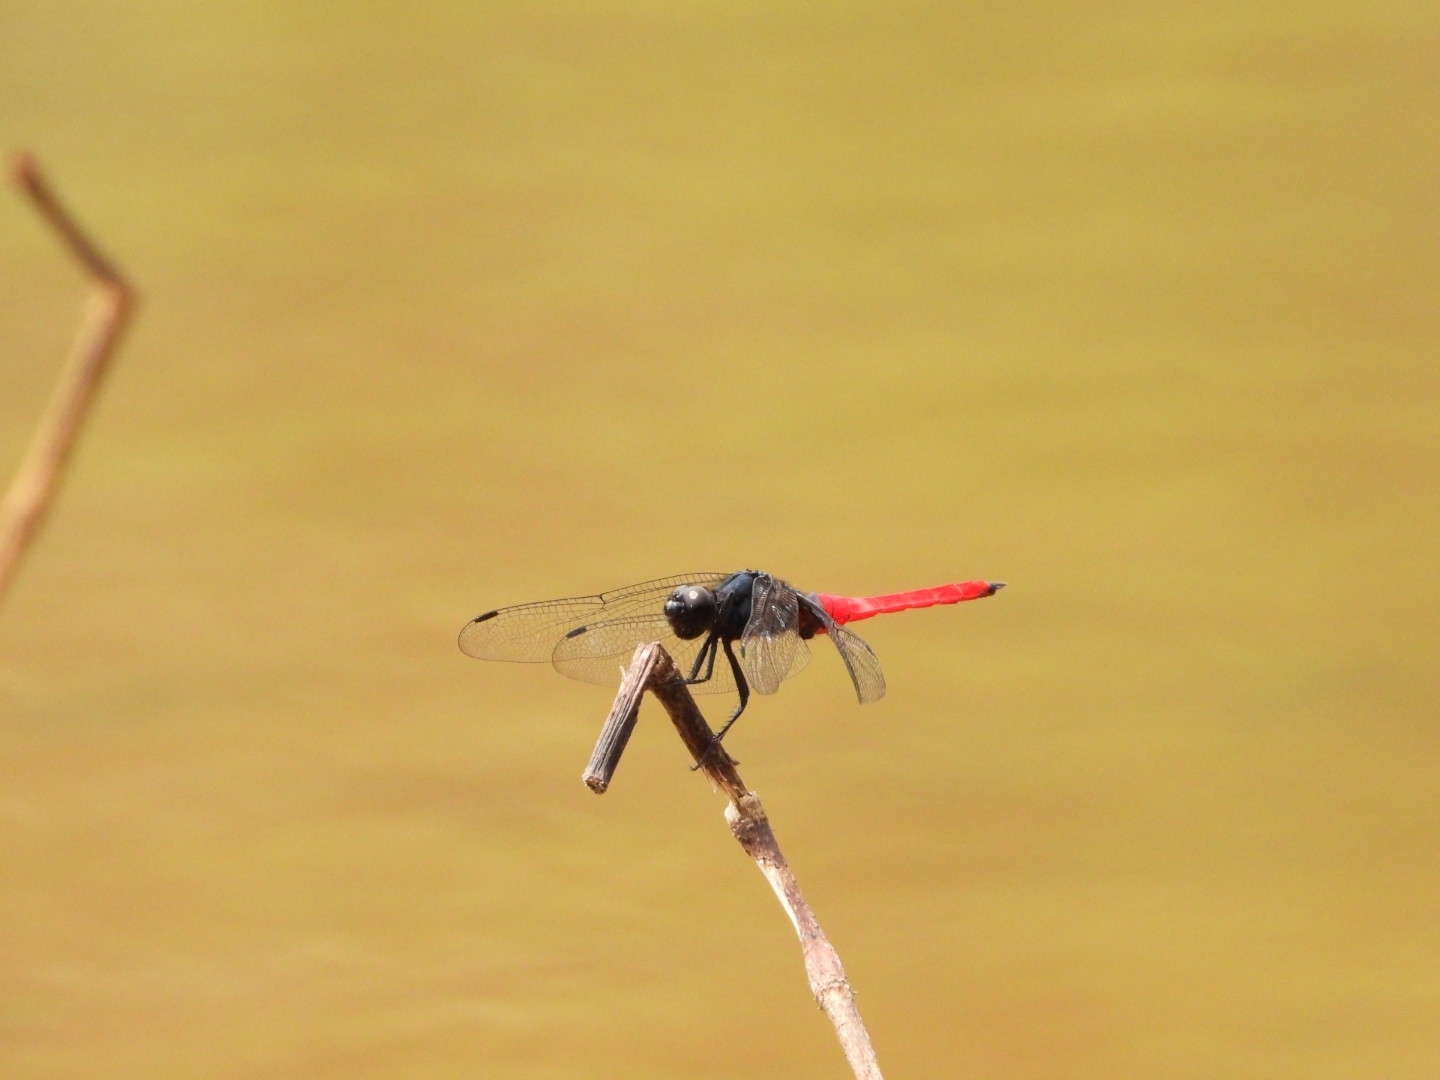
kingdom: Animalia
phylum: Arthropoda
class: Insecta
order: Odonata
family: Libellulidae
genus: Orthetrum
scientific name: Orthetrum pruinosum
